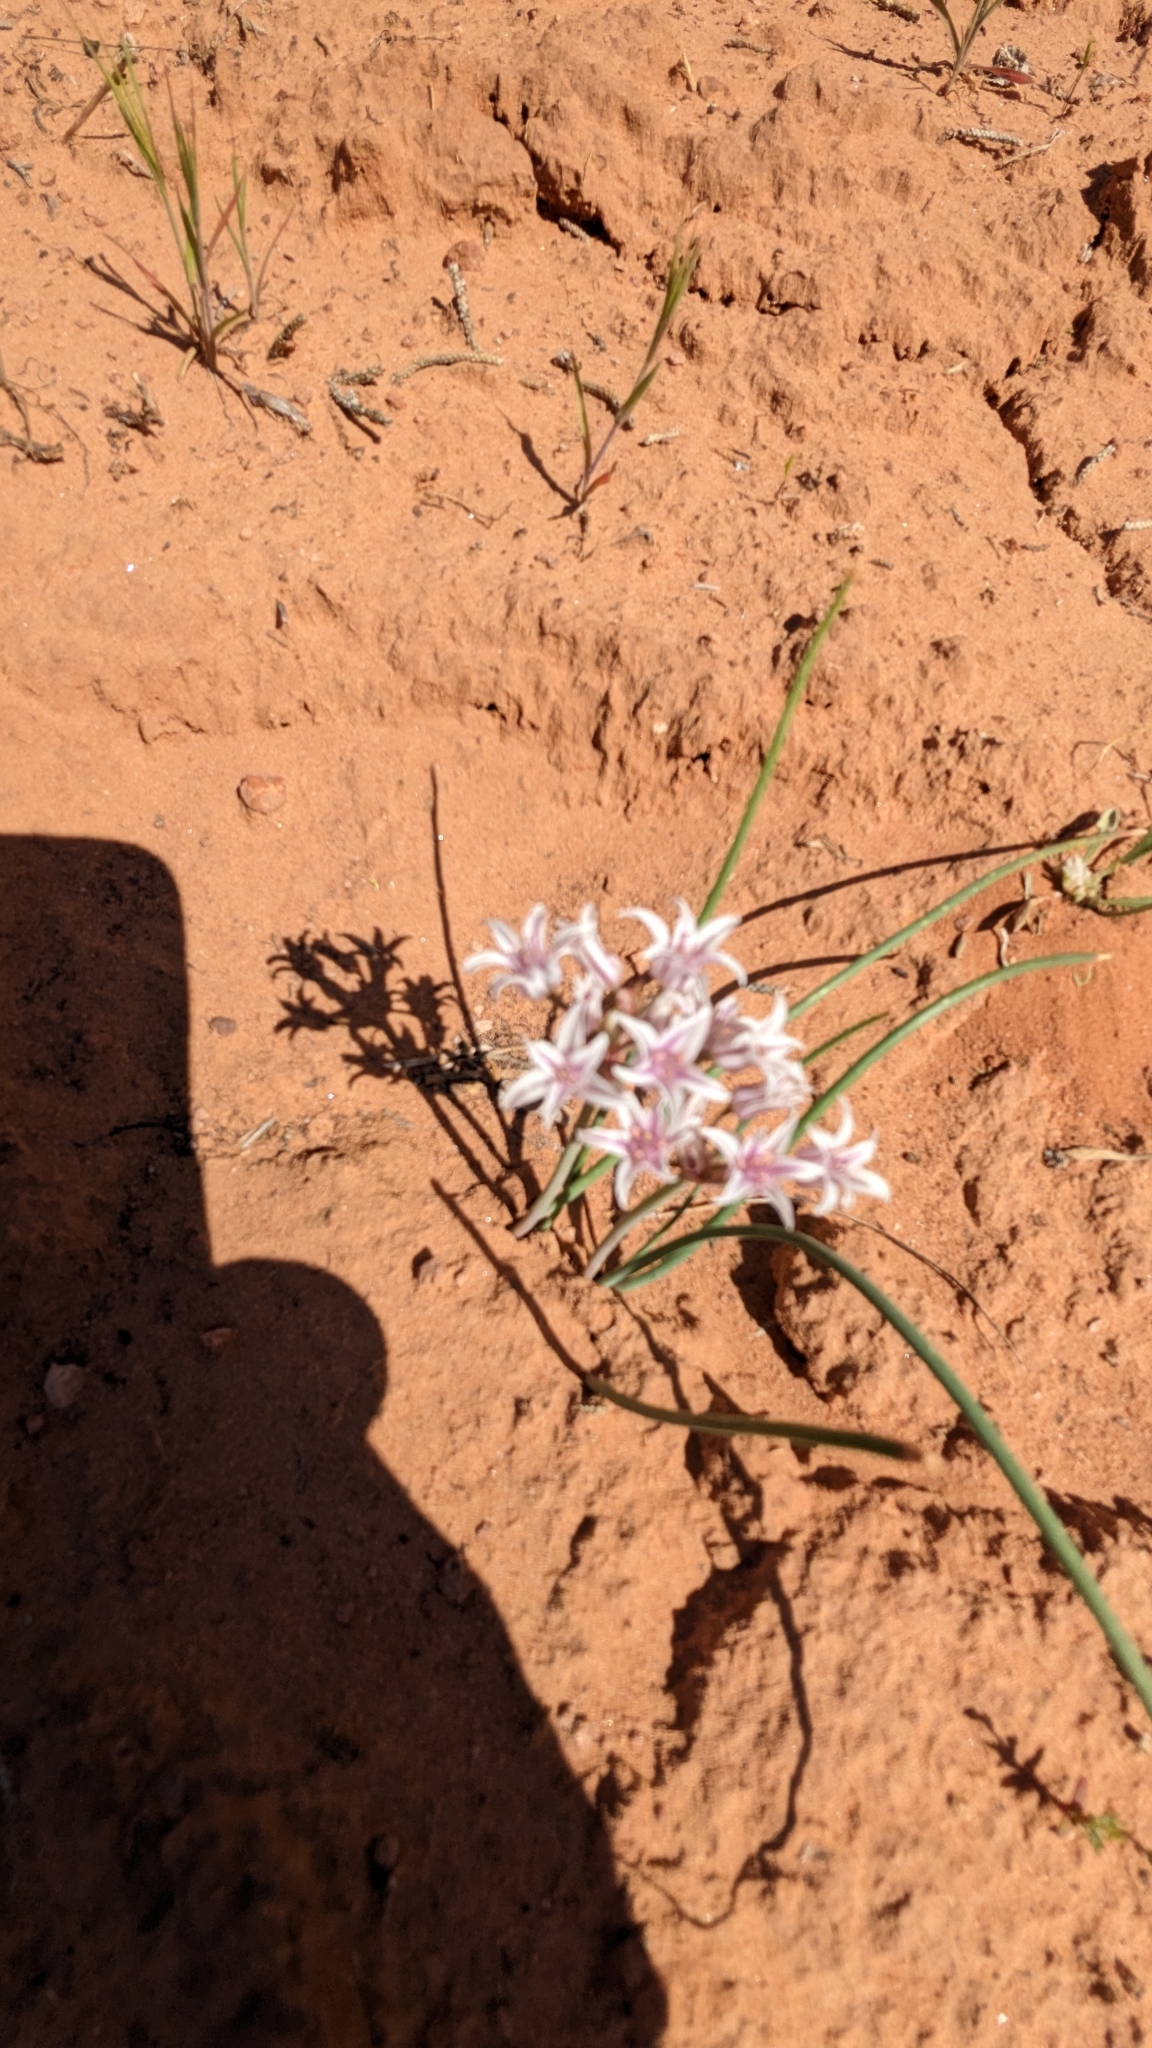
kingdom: Plantae
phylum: Tracheophyta
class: Liliopsida
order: Asparagales
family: Amaryllidaceae
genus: Allium
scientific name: Allium macropetalum
